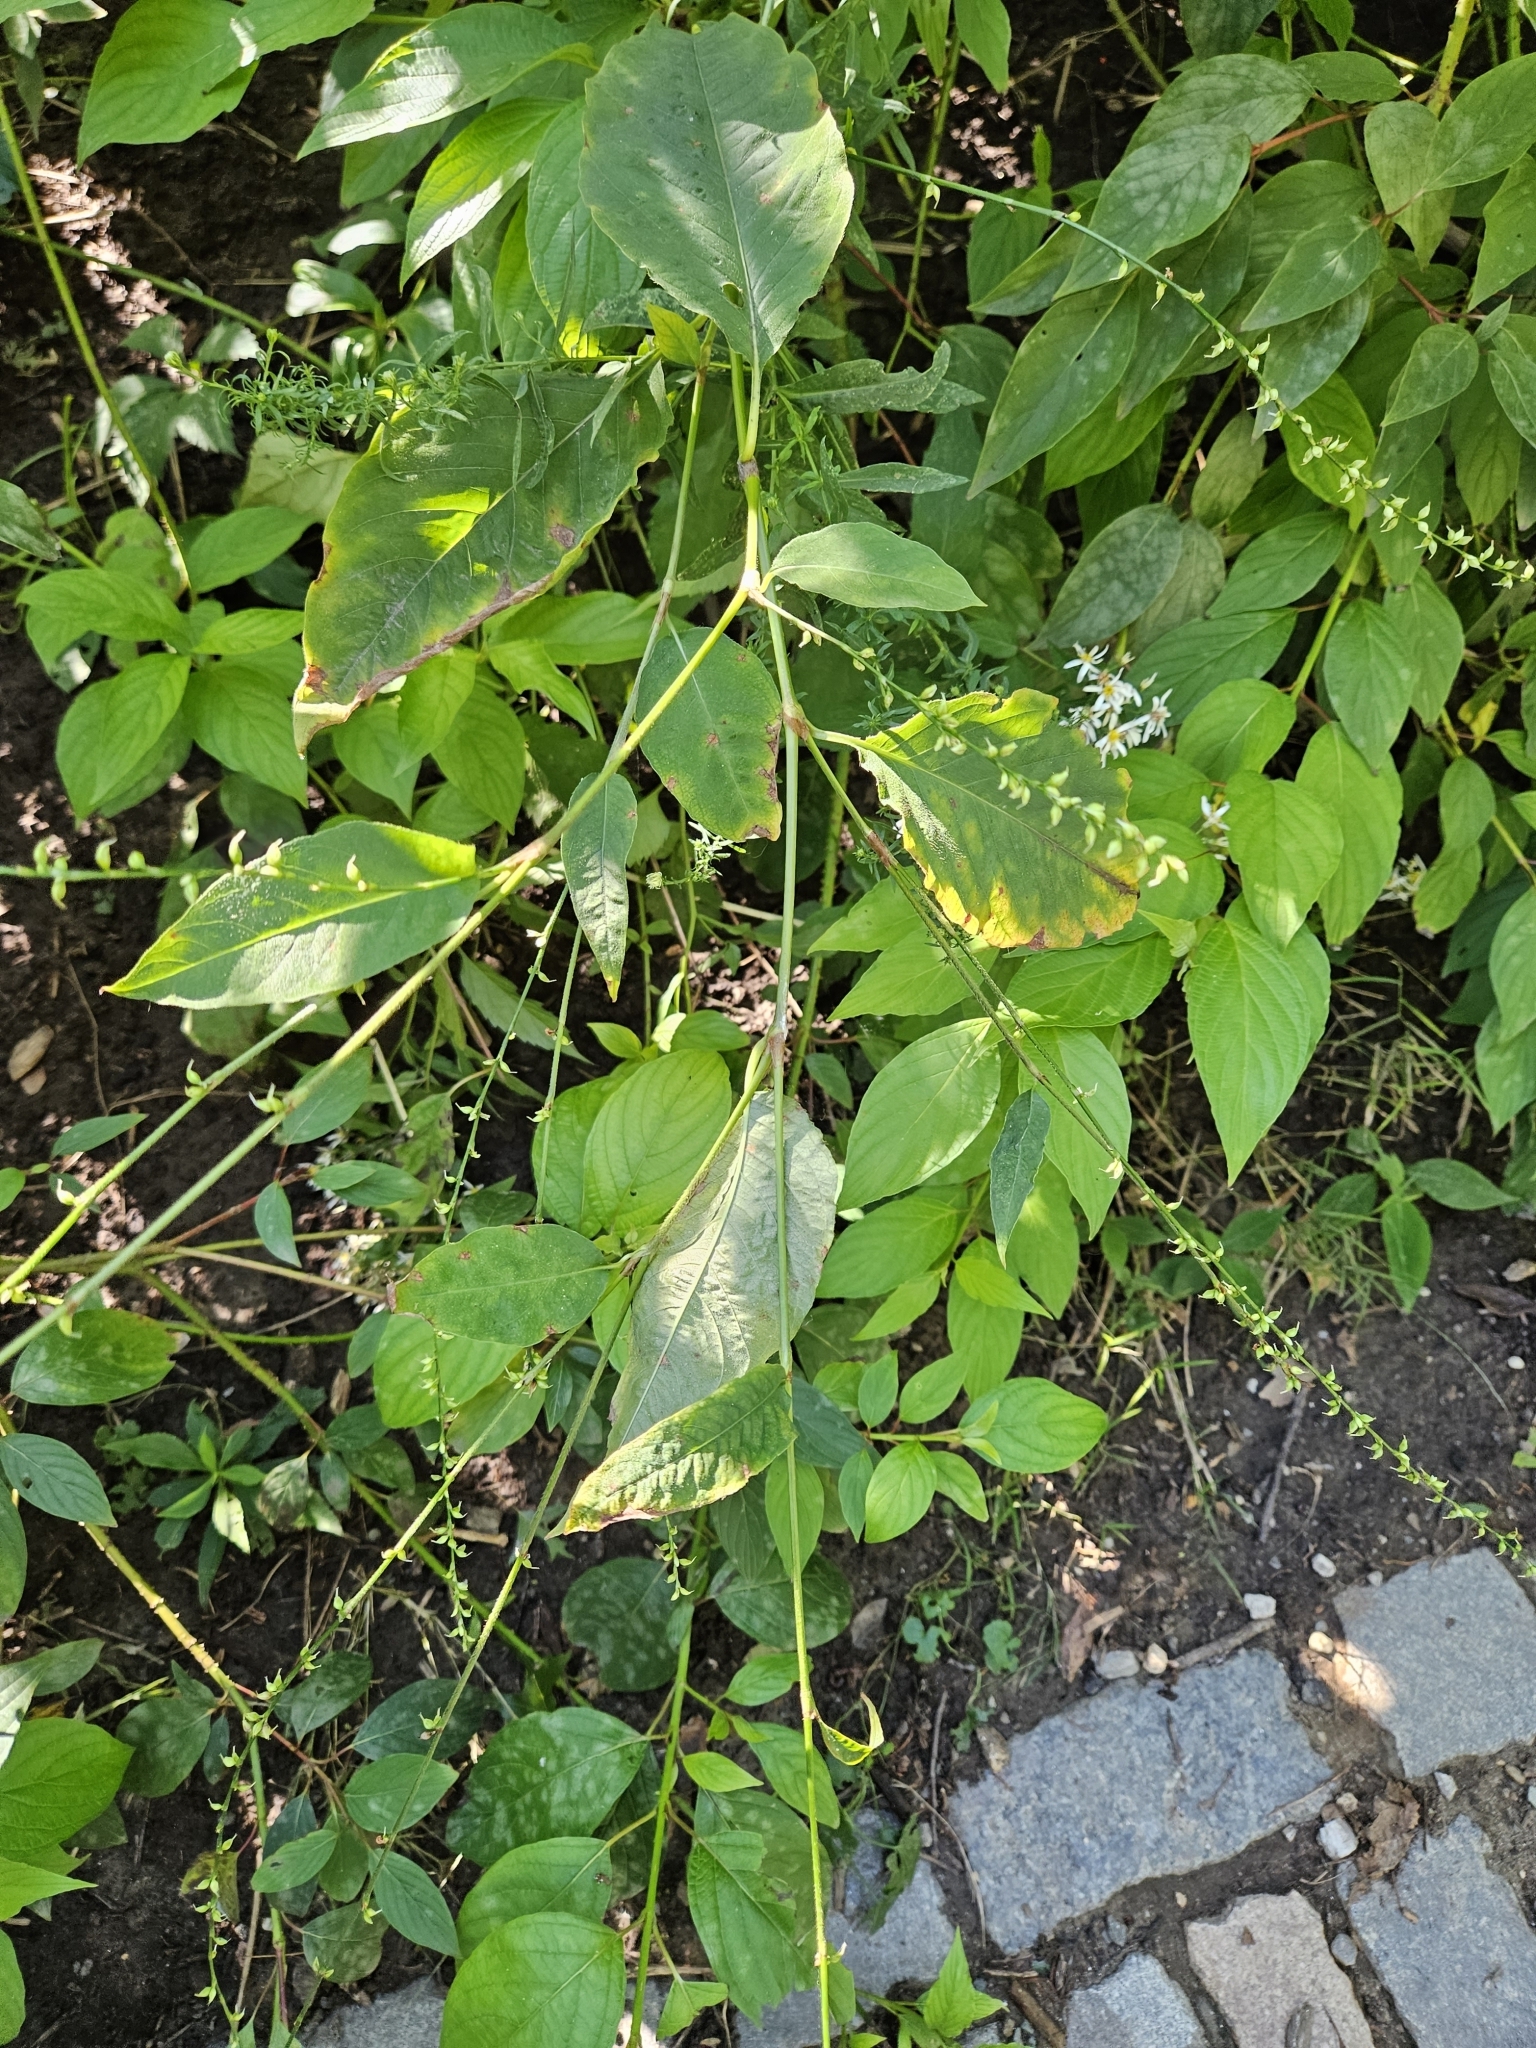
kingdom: Plantae
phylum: Tracheophyta
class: Magnoliopsida
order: Caryophyllales
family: Polygonaceae
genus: Persicaria
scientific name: Persicaria virginiana
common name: Jumpseed
